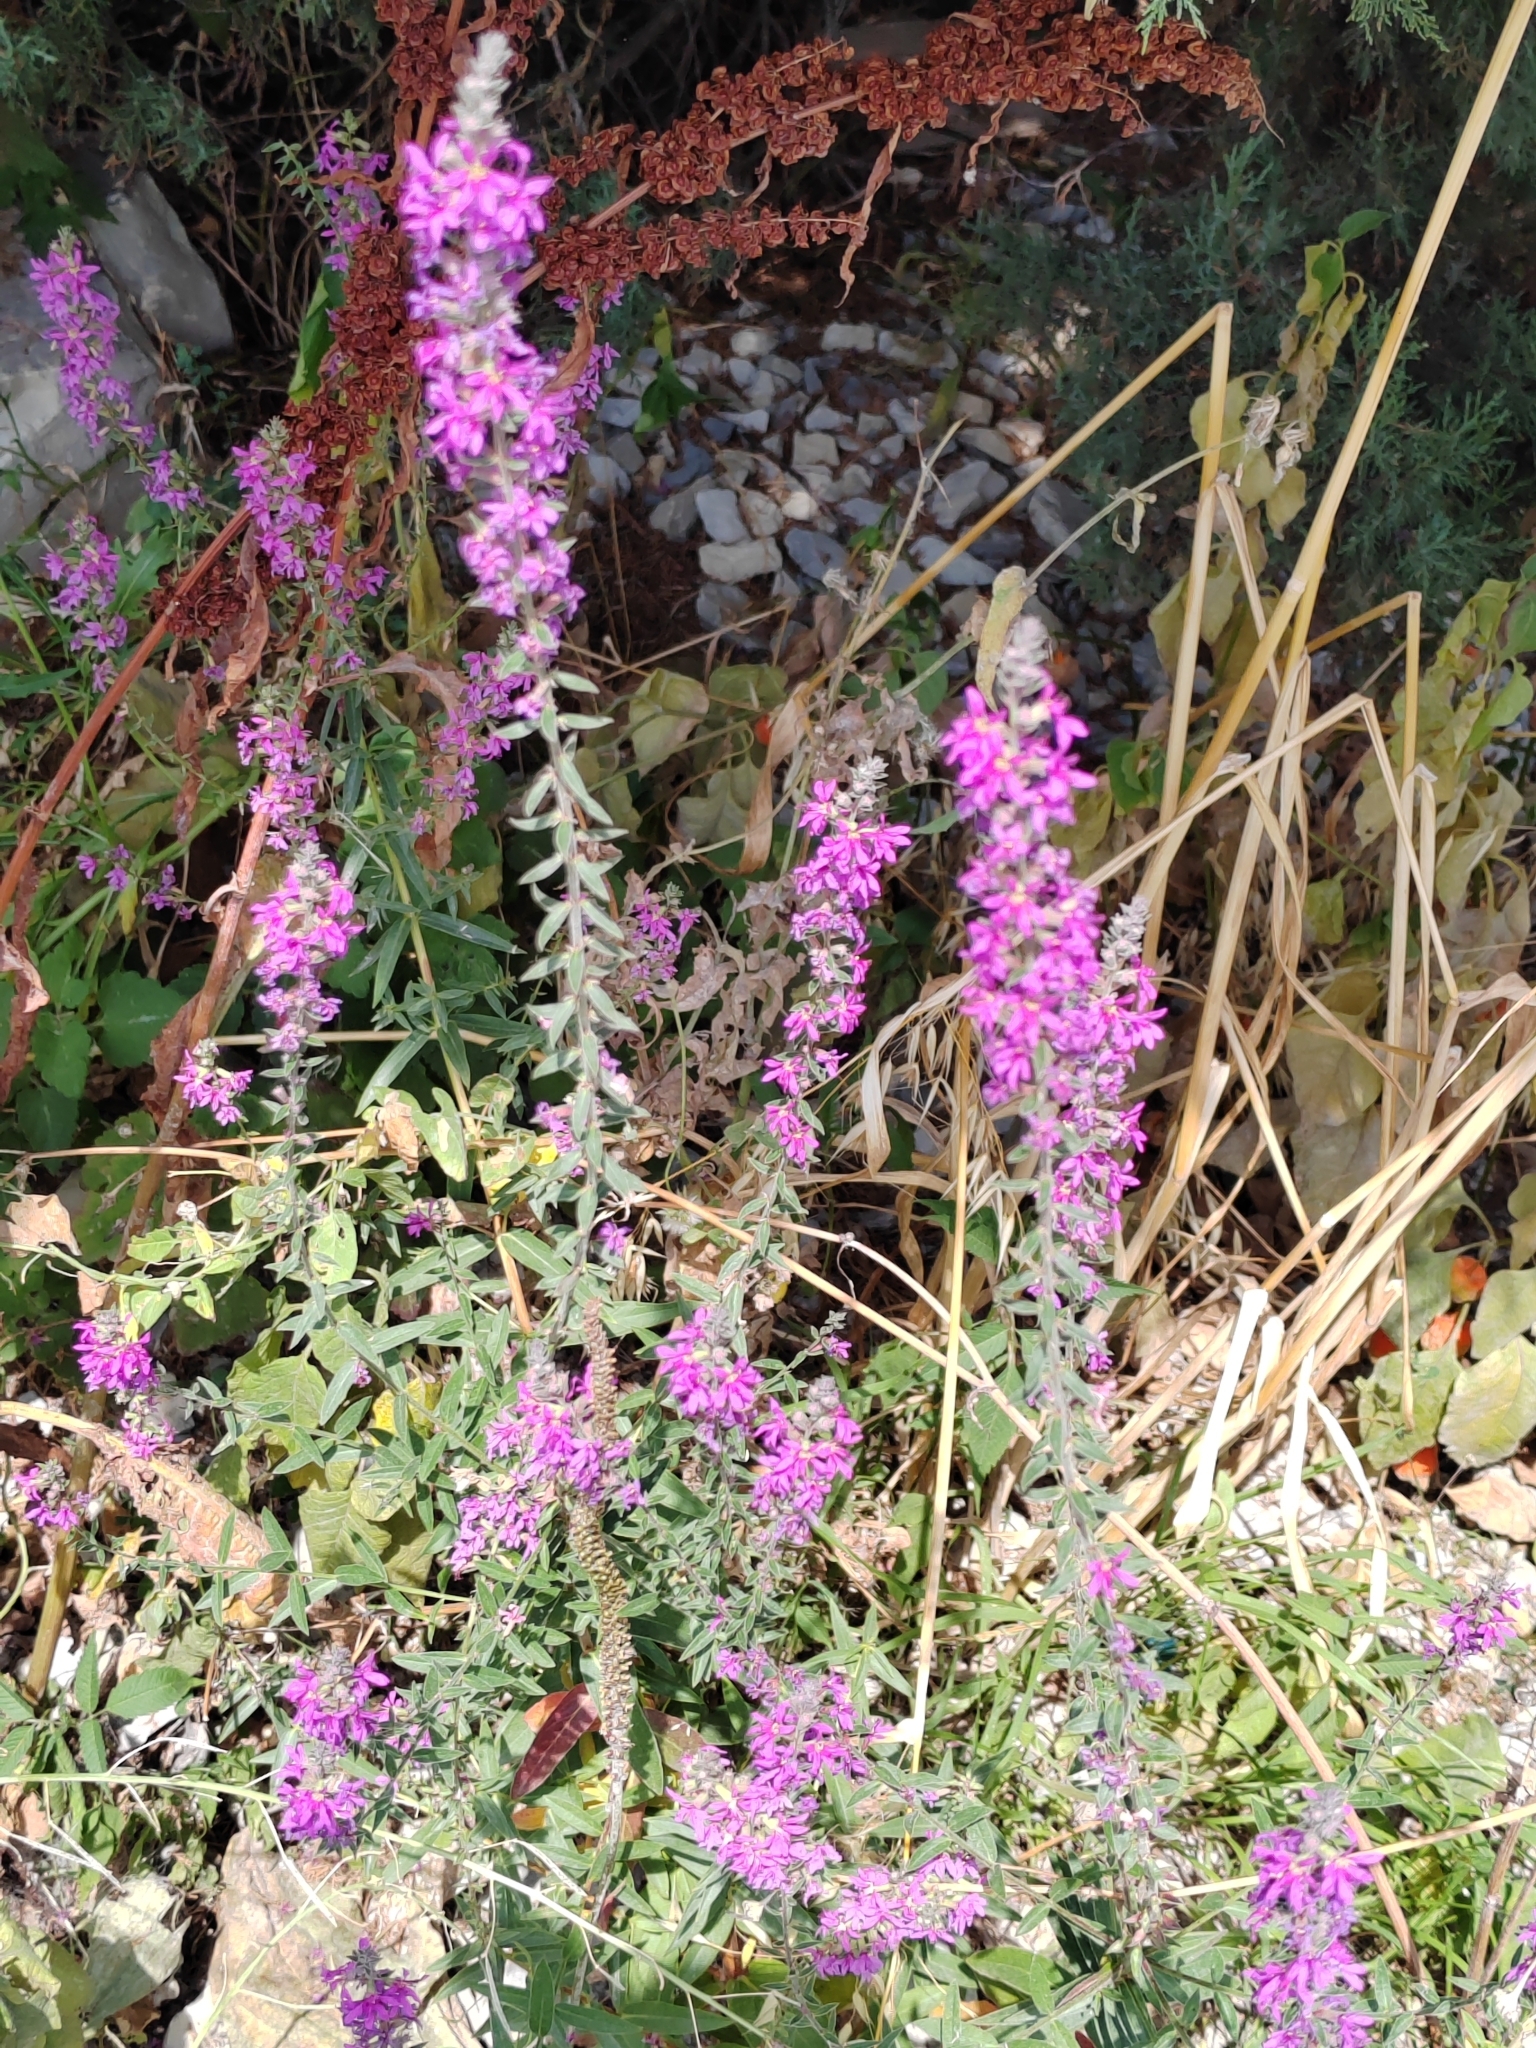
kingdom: Plantae
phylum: Tracheophyta
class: Magnoliopsida
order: Myrtales
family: Lythraceae
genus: Lythrum
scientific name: Lythrum salicaria
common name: Purple loosestrife
